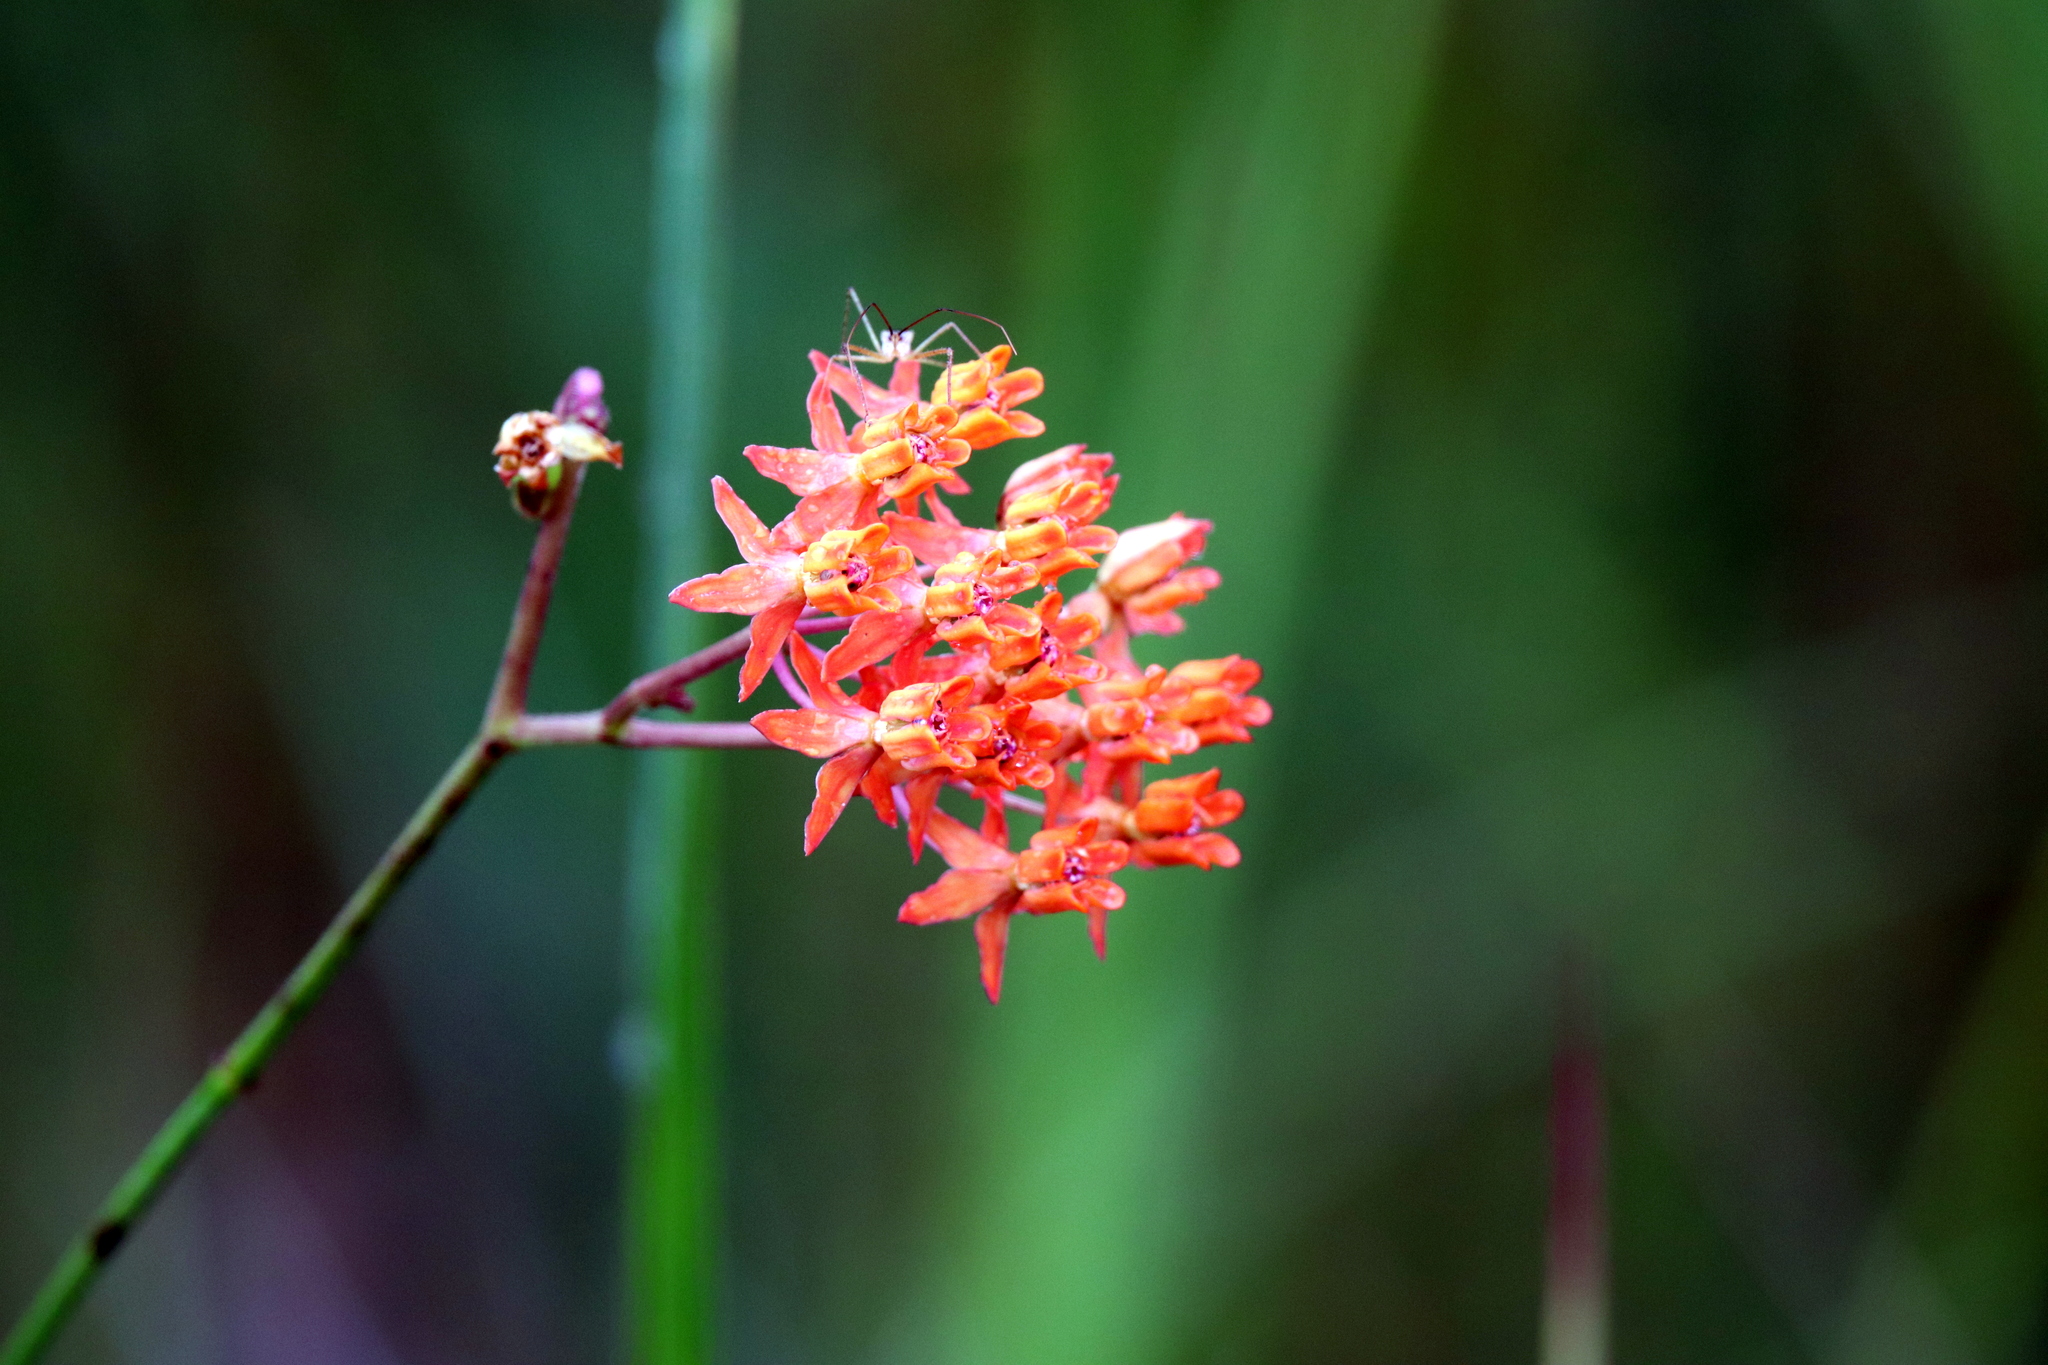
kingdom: Plantae
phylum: Tracheophyta
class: Magnoliopsida
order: Gentianales
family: Apocynaceae
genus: Asclepias
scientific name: Asclepias lanceolata
